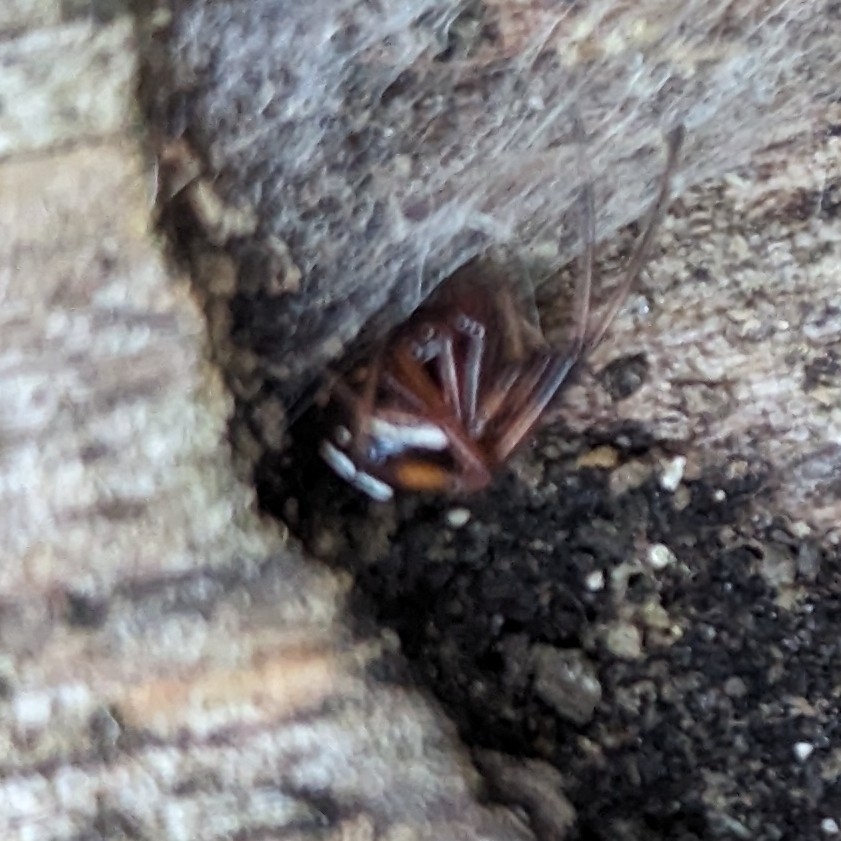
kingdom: Animalia
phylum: Arthropoda
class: Arachnida
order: Araneae
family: Theridiidae
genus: Latrodectus
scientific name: Latrodectus variolus
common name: Northern black widow
